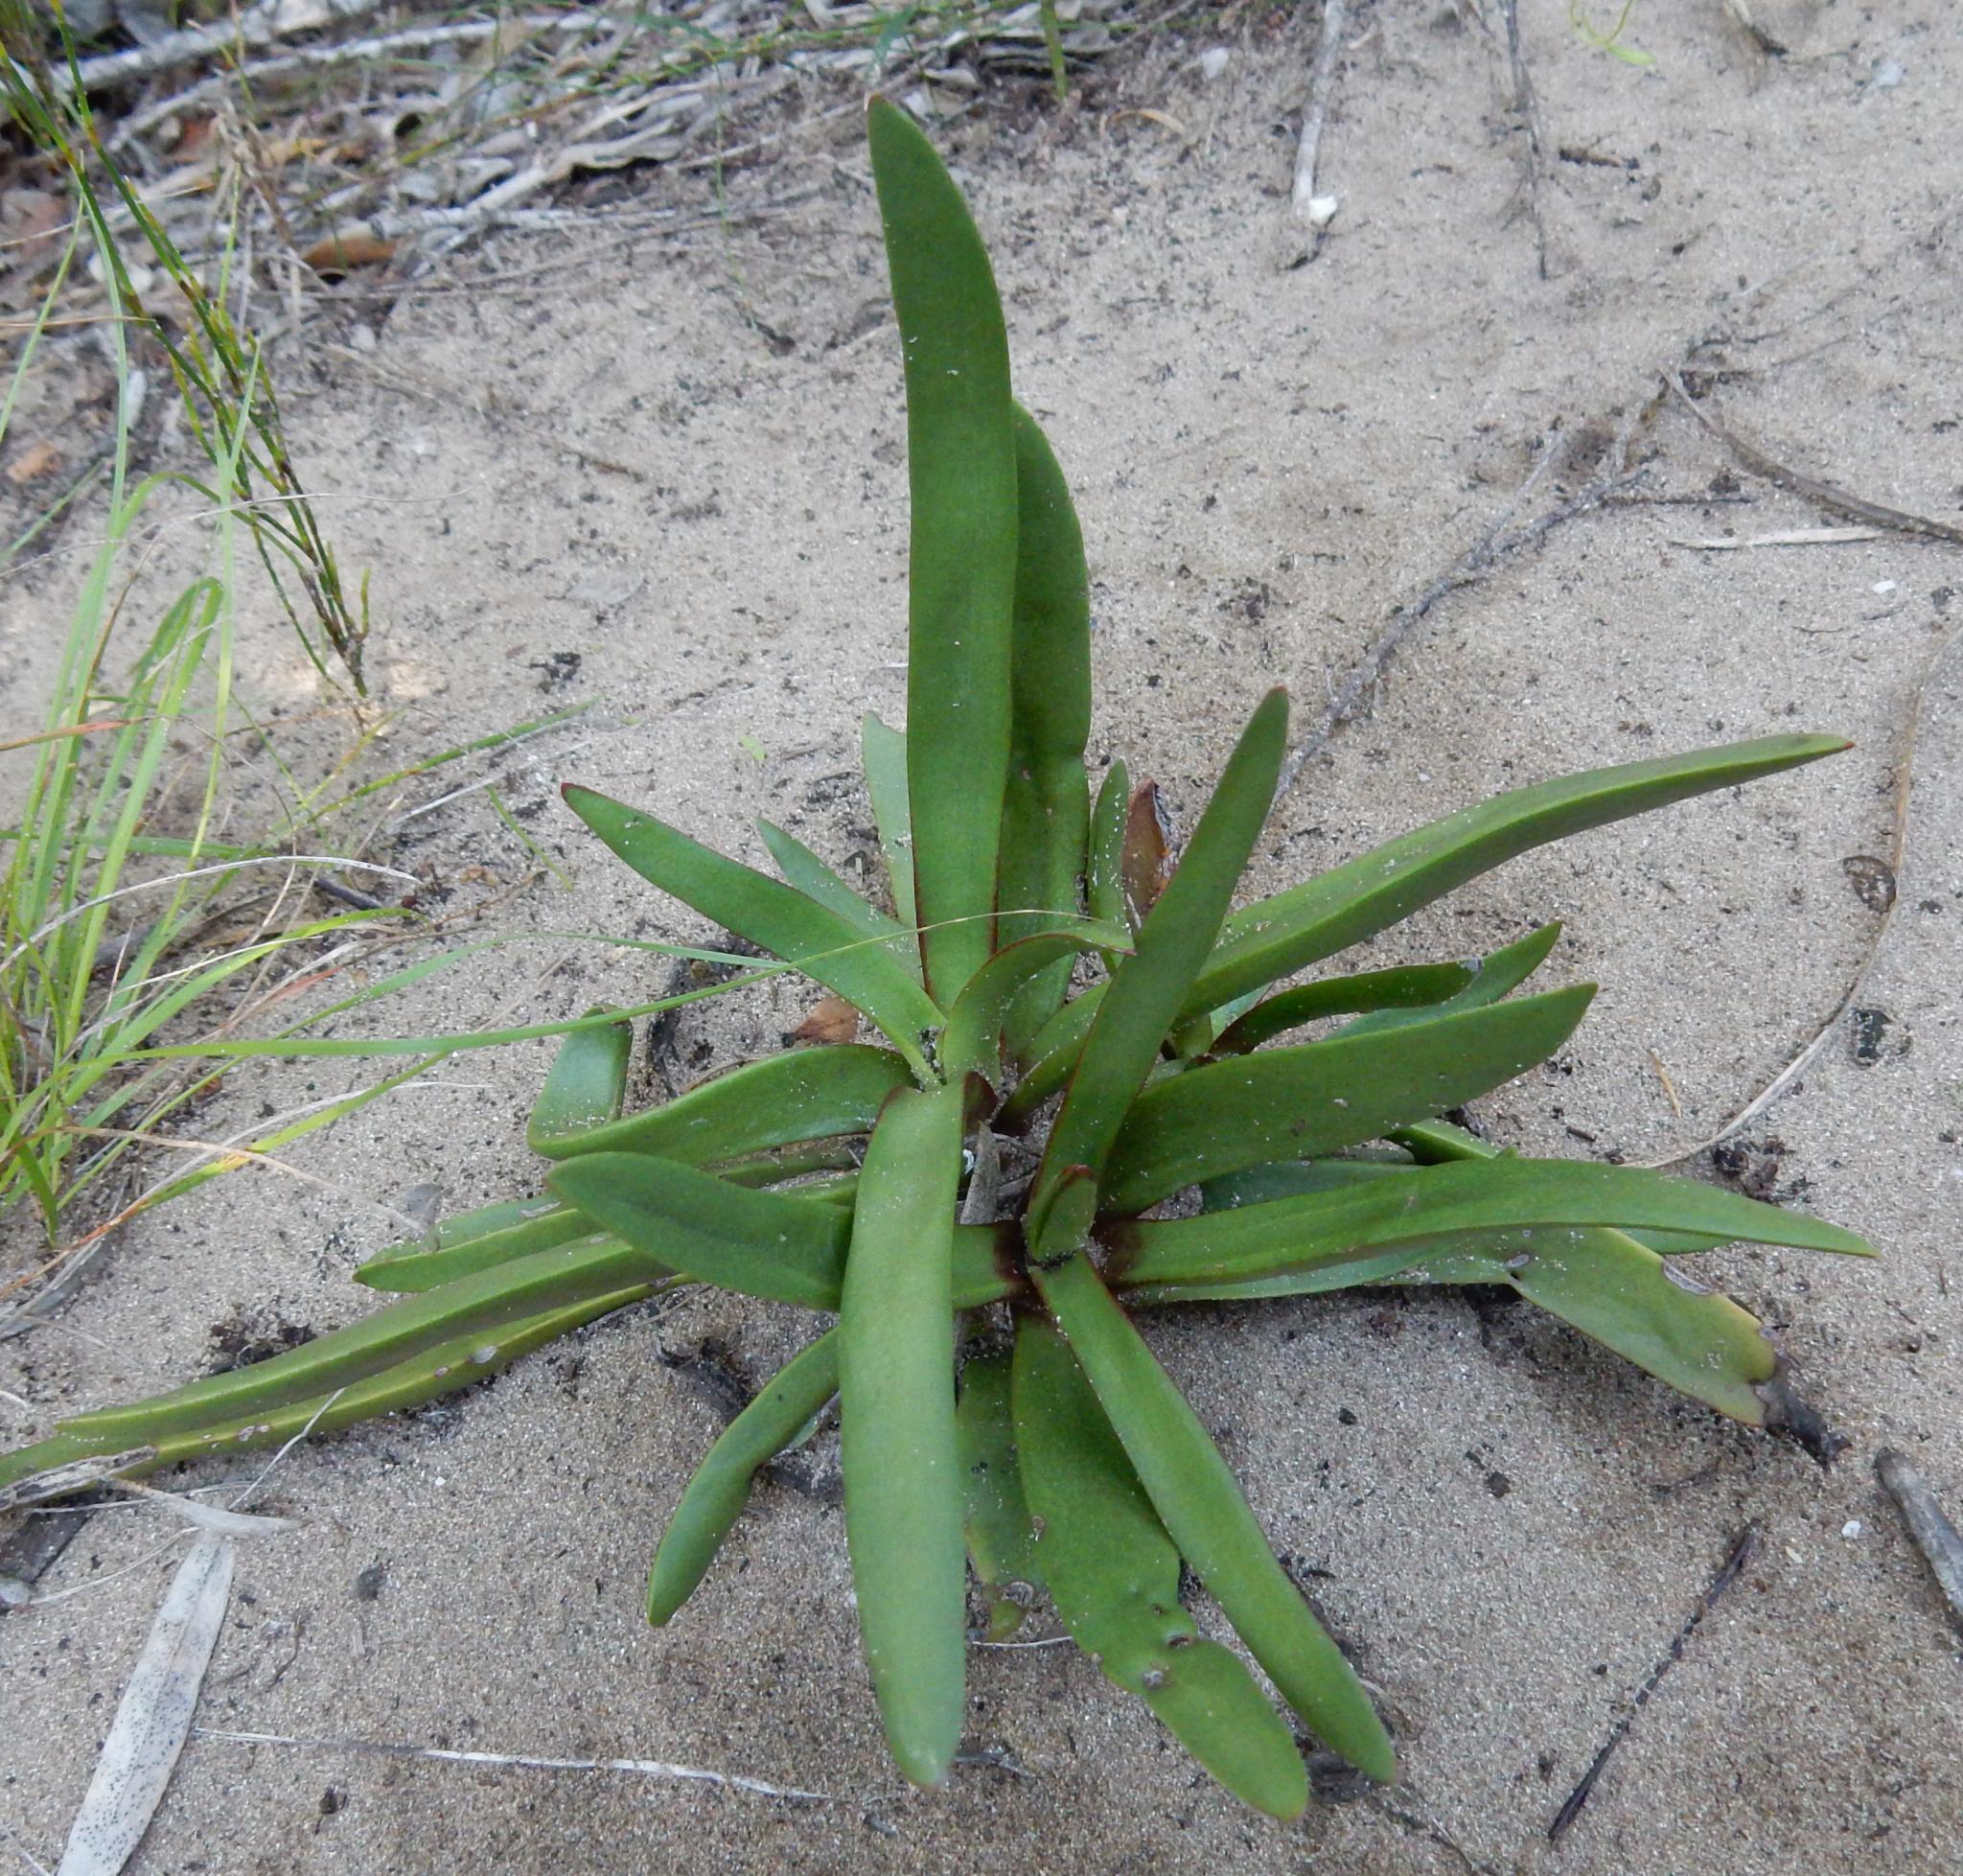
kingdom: Plantae
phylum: Tracheophyta
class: Magnoliopsida
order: Saxifragales
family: Crassulaceae
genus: Crassula
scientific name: Crassula nudicaulis
